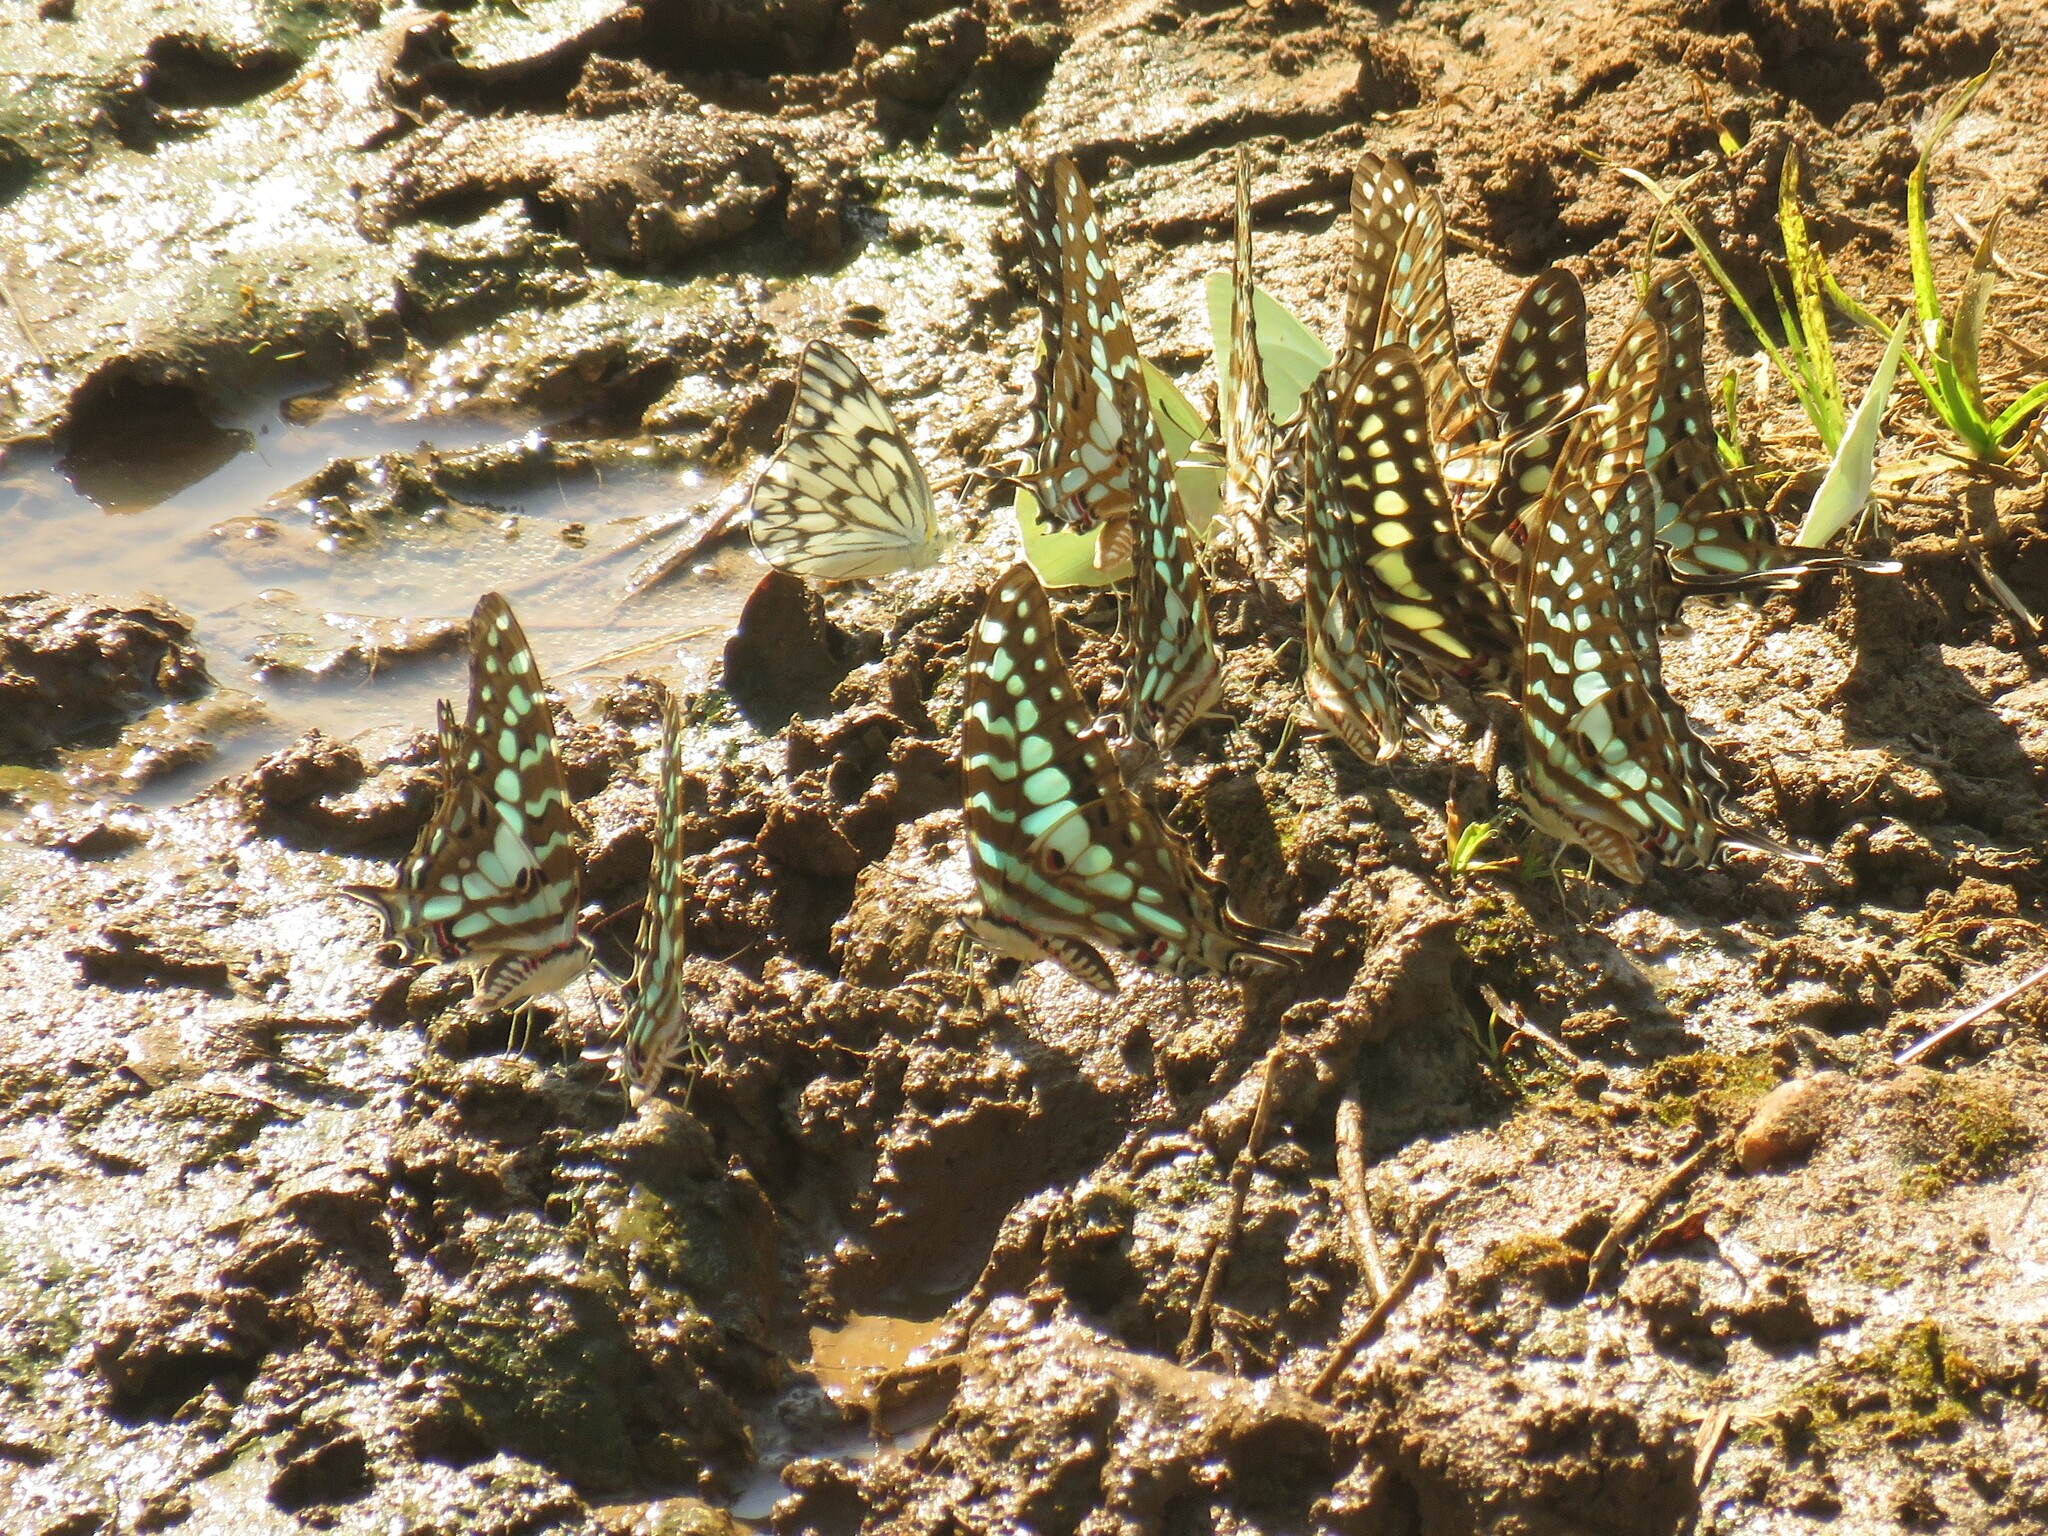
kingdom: Animalia
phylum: Arthropoda
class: Insecta
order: Lepidoptera
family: Papilionidae
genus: Graphium
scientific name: Graphium antheus
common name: Large striped swordtail
